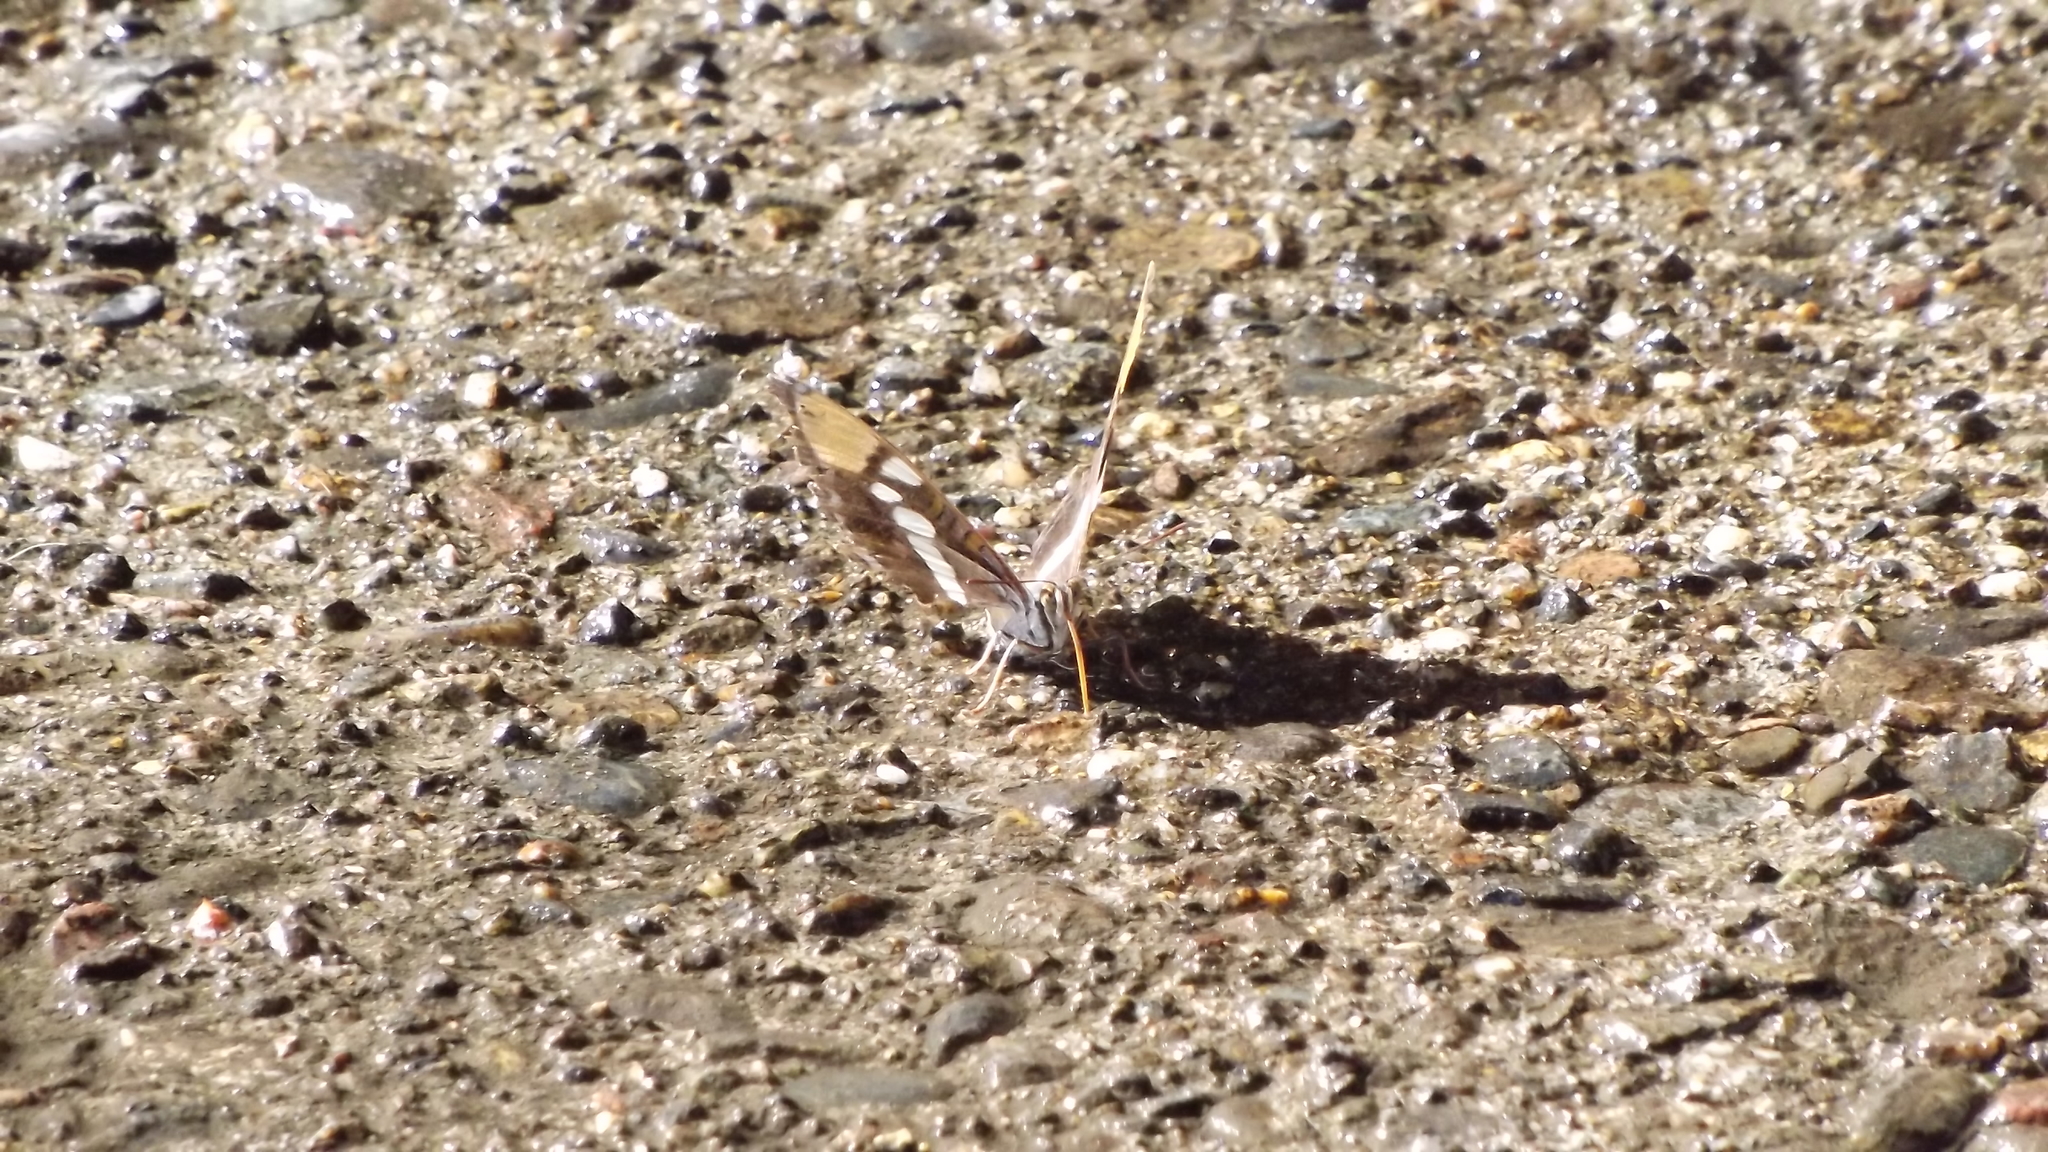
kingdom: Animalia
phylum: Arthropoda
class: Insecta
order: Lepidoptera
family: Nymphalidae
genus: Limenitis
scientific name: Limenitis bredowii
